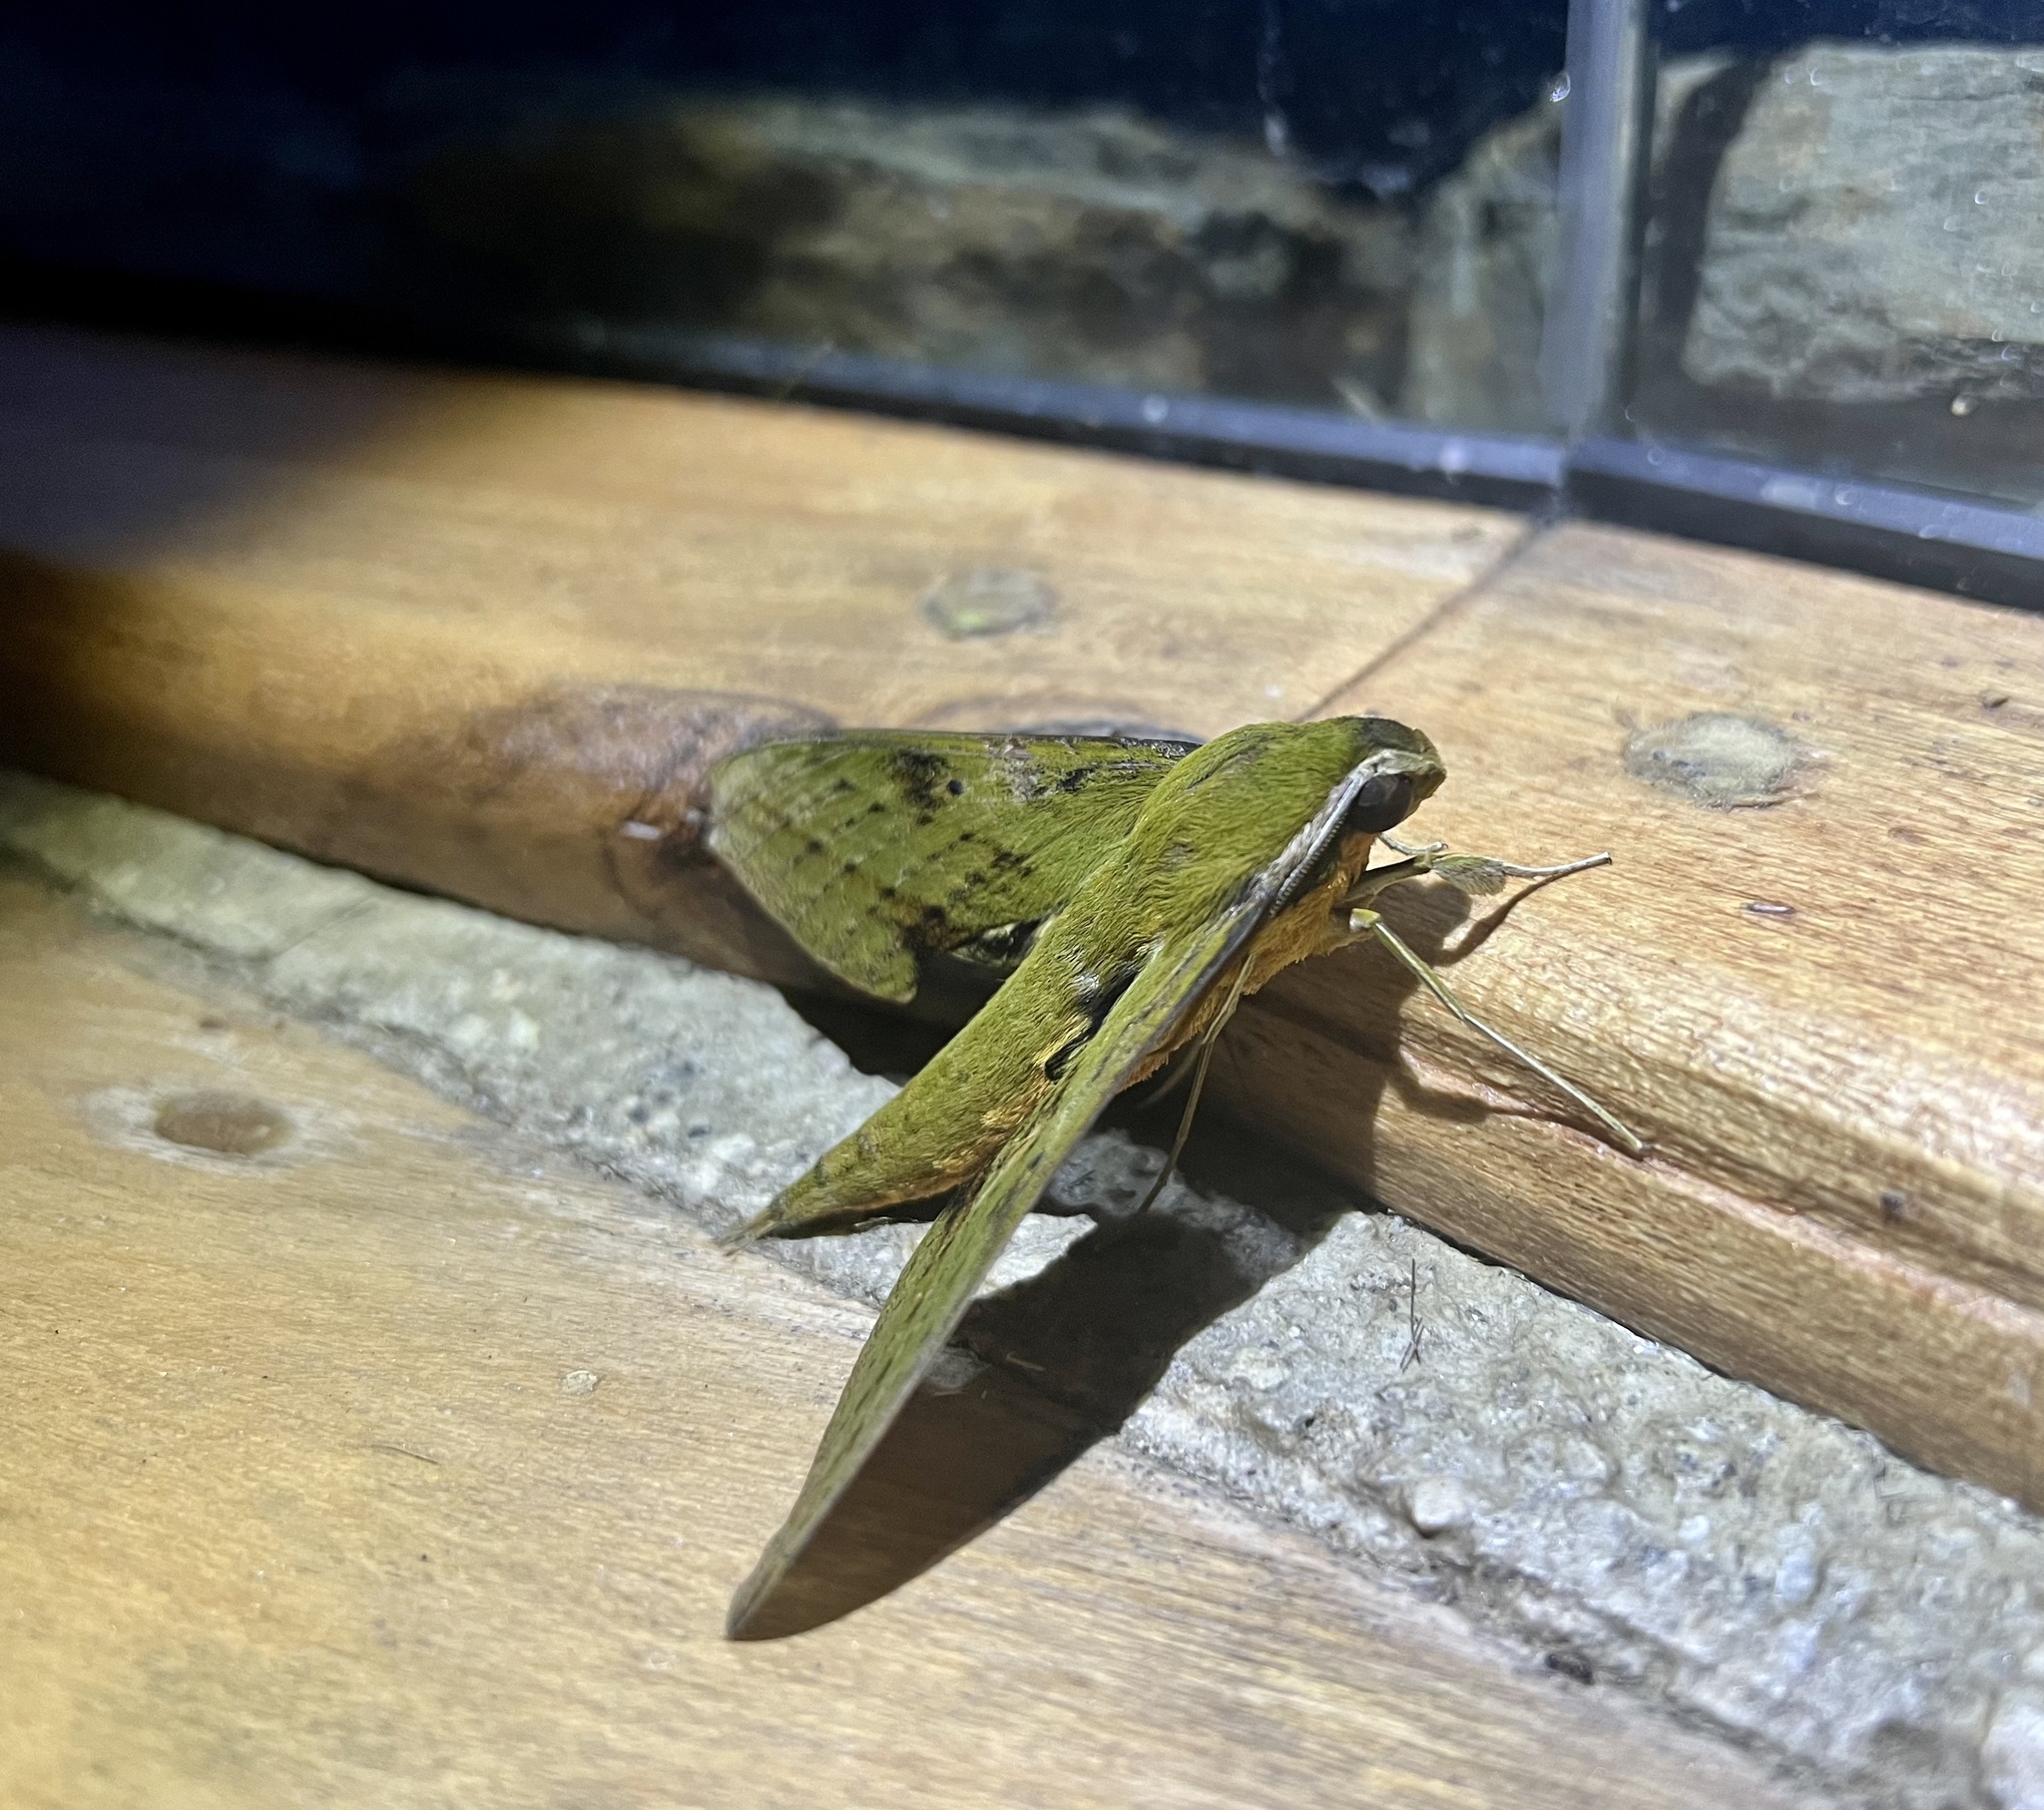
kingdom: Animalia
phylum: Arthropoda
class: Insecta
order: Lepidoptera
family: Sphingidae
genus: Xylophanes
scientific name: Xylophanes crotonis
